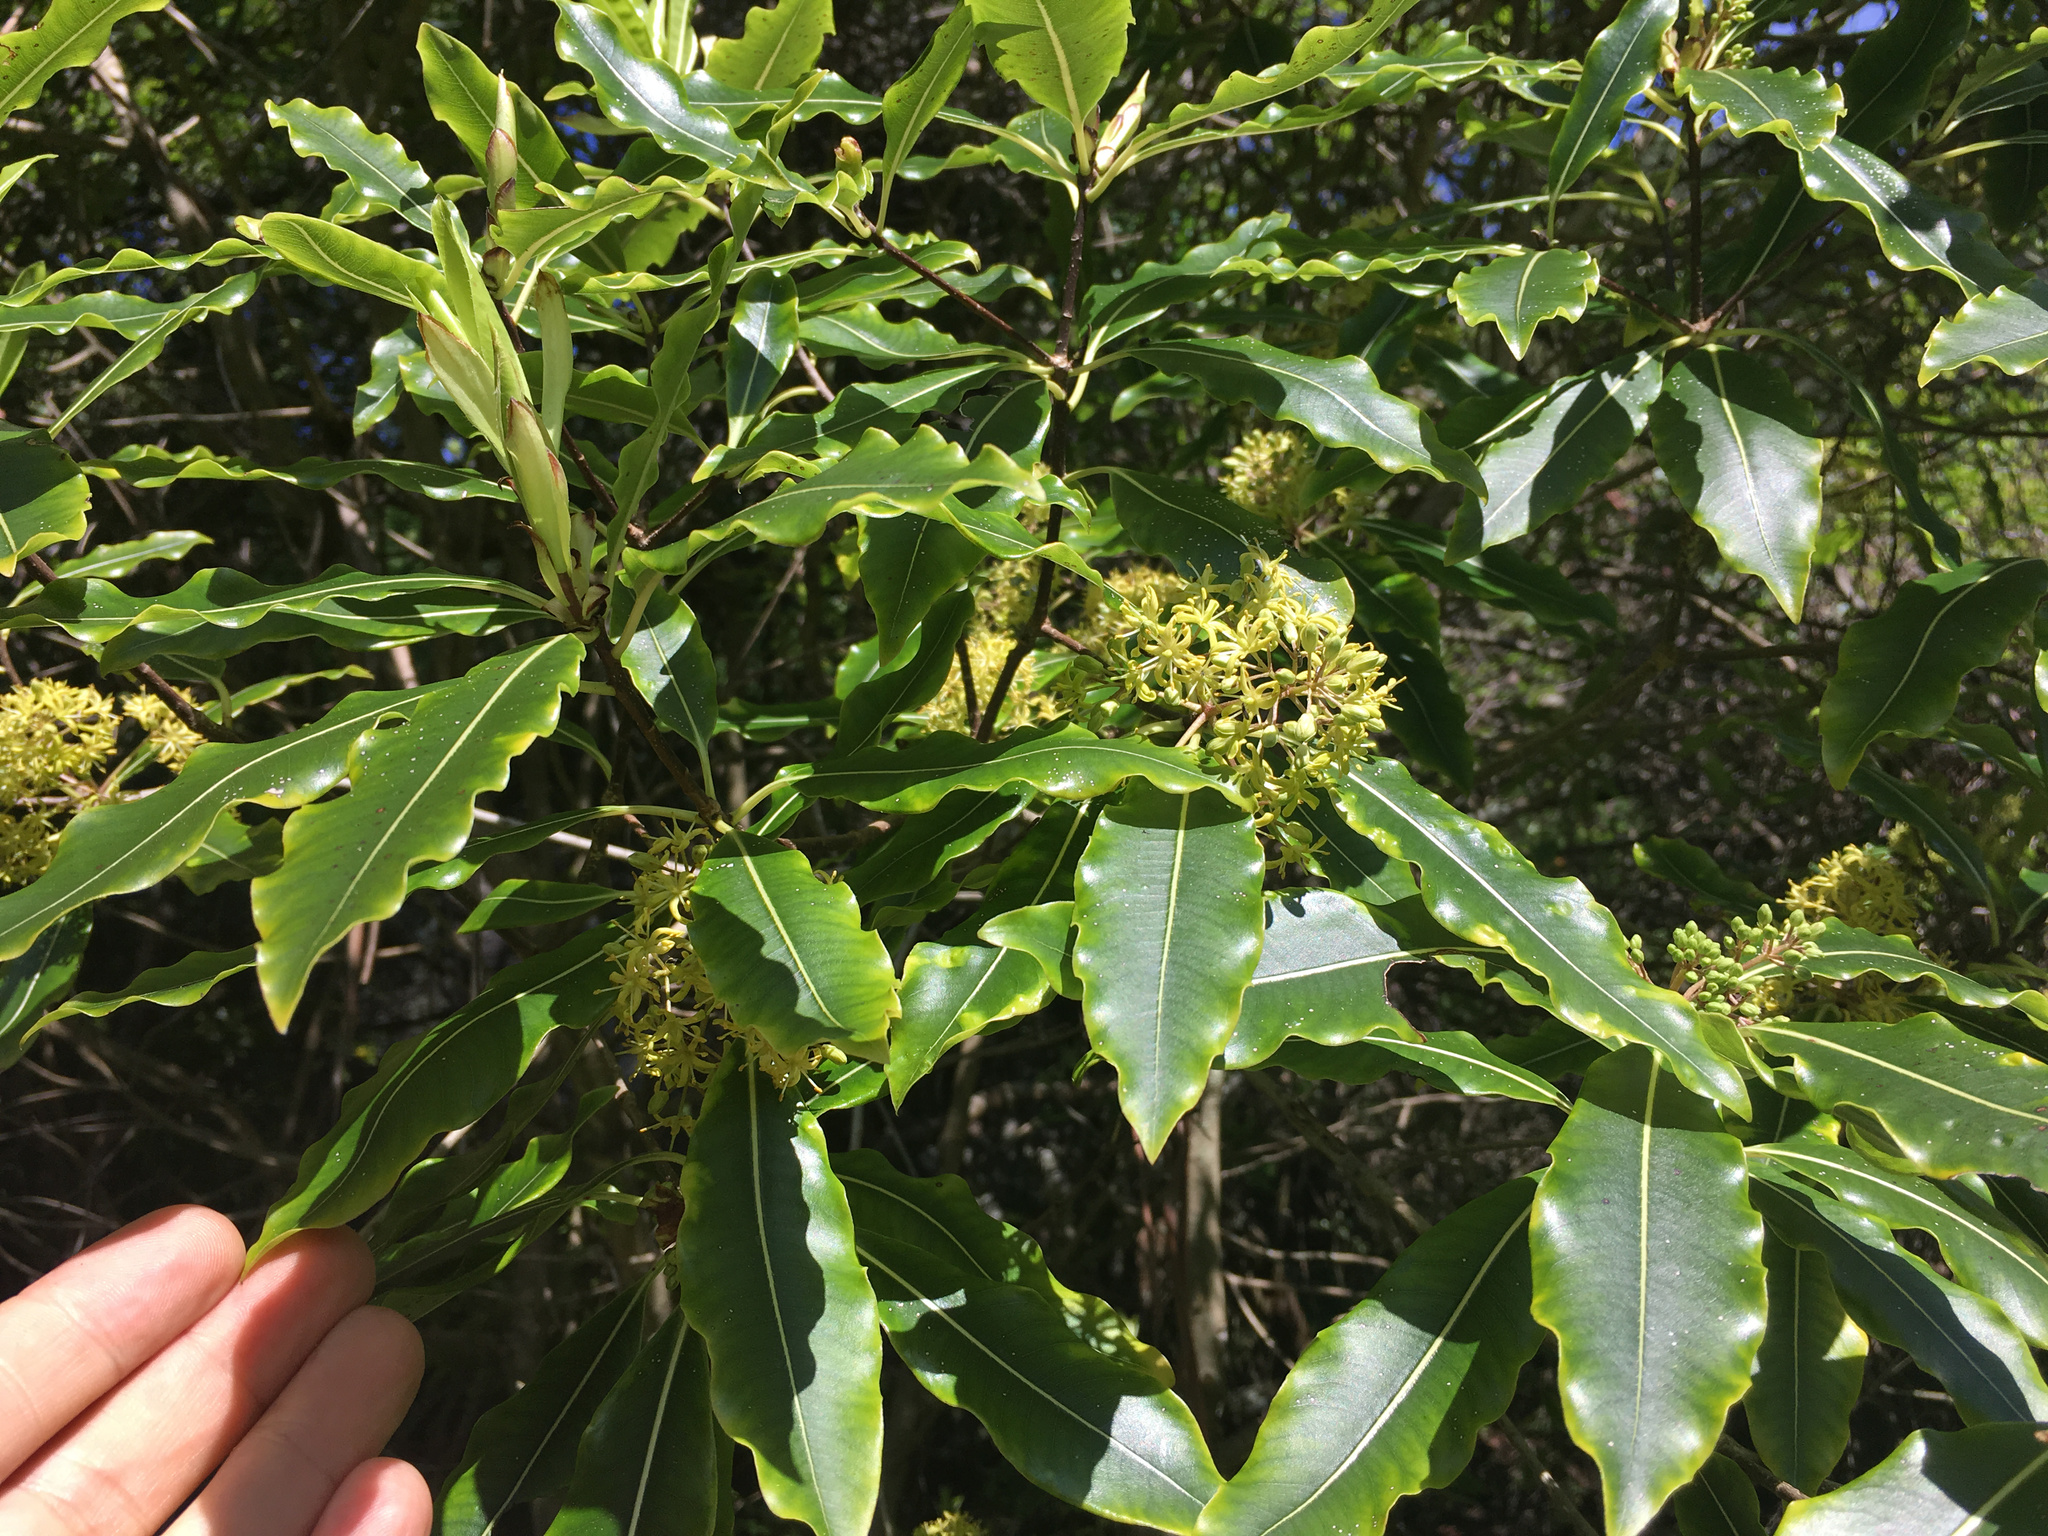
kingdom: Plantae
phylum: Tracheophyta
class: Magnoliopsida
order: Apiales
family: Pittosporaceae
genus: Pittosporum
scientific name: Pittosporum eugenioides
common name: Lemonwood
